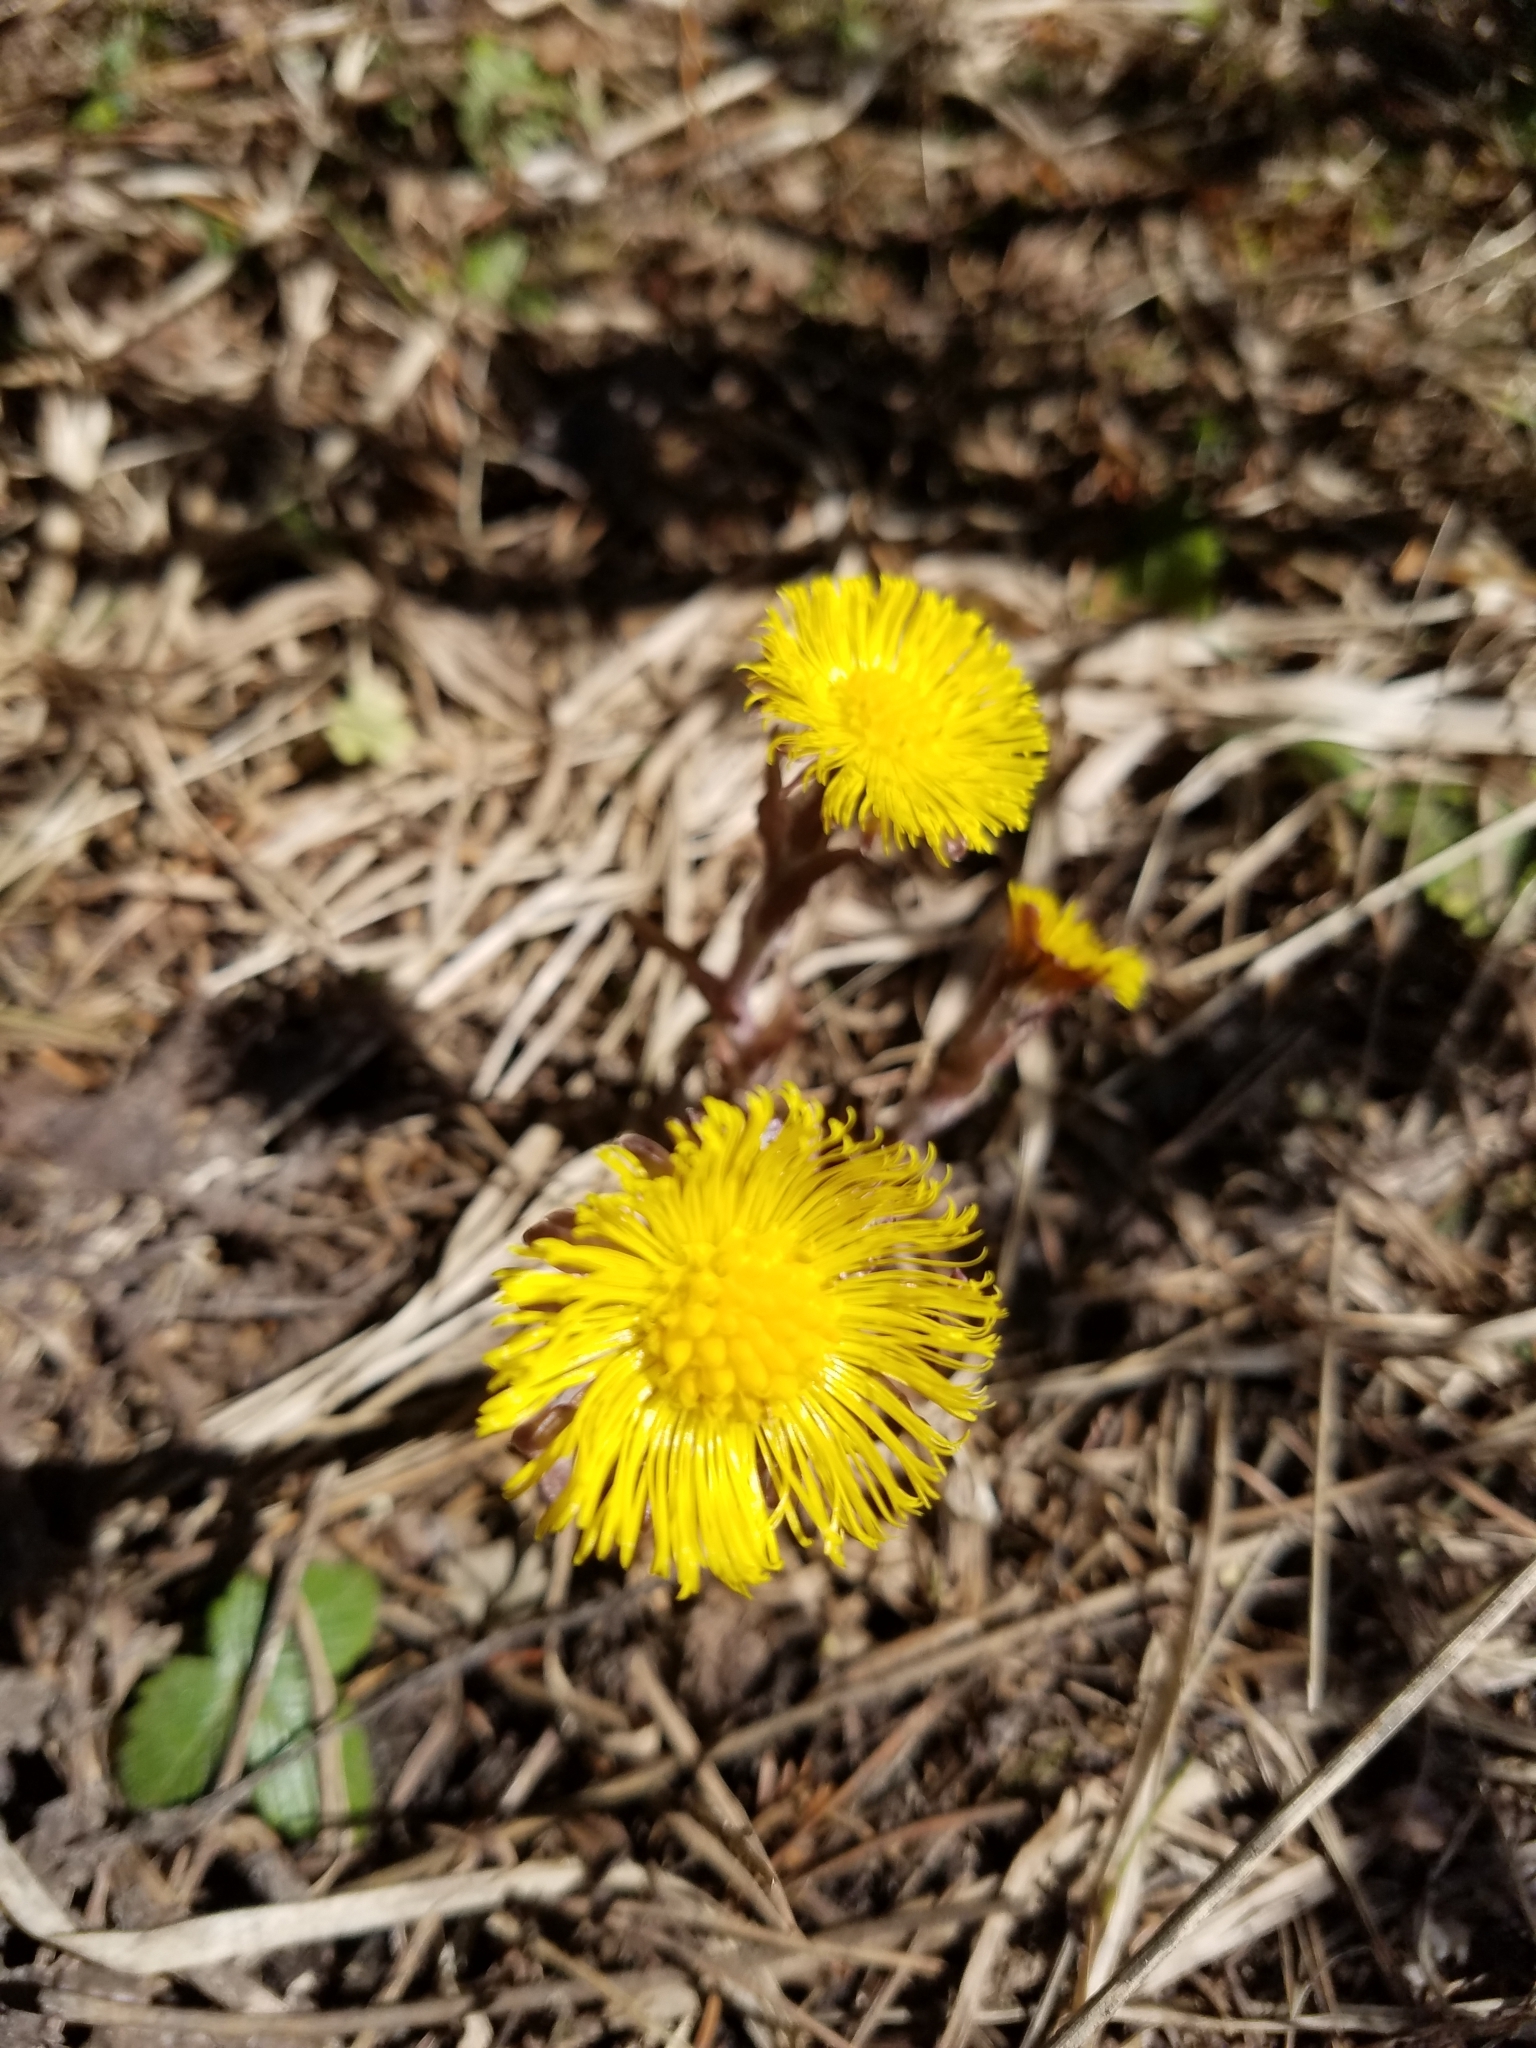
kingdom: Plantae
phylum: Tracheophyta
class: Magnoliopsida
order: Asterales
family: Asteraceae
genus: Tussilago
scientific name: Tussilago farfara
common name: Coltsfoot
